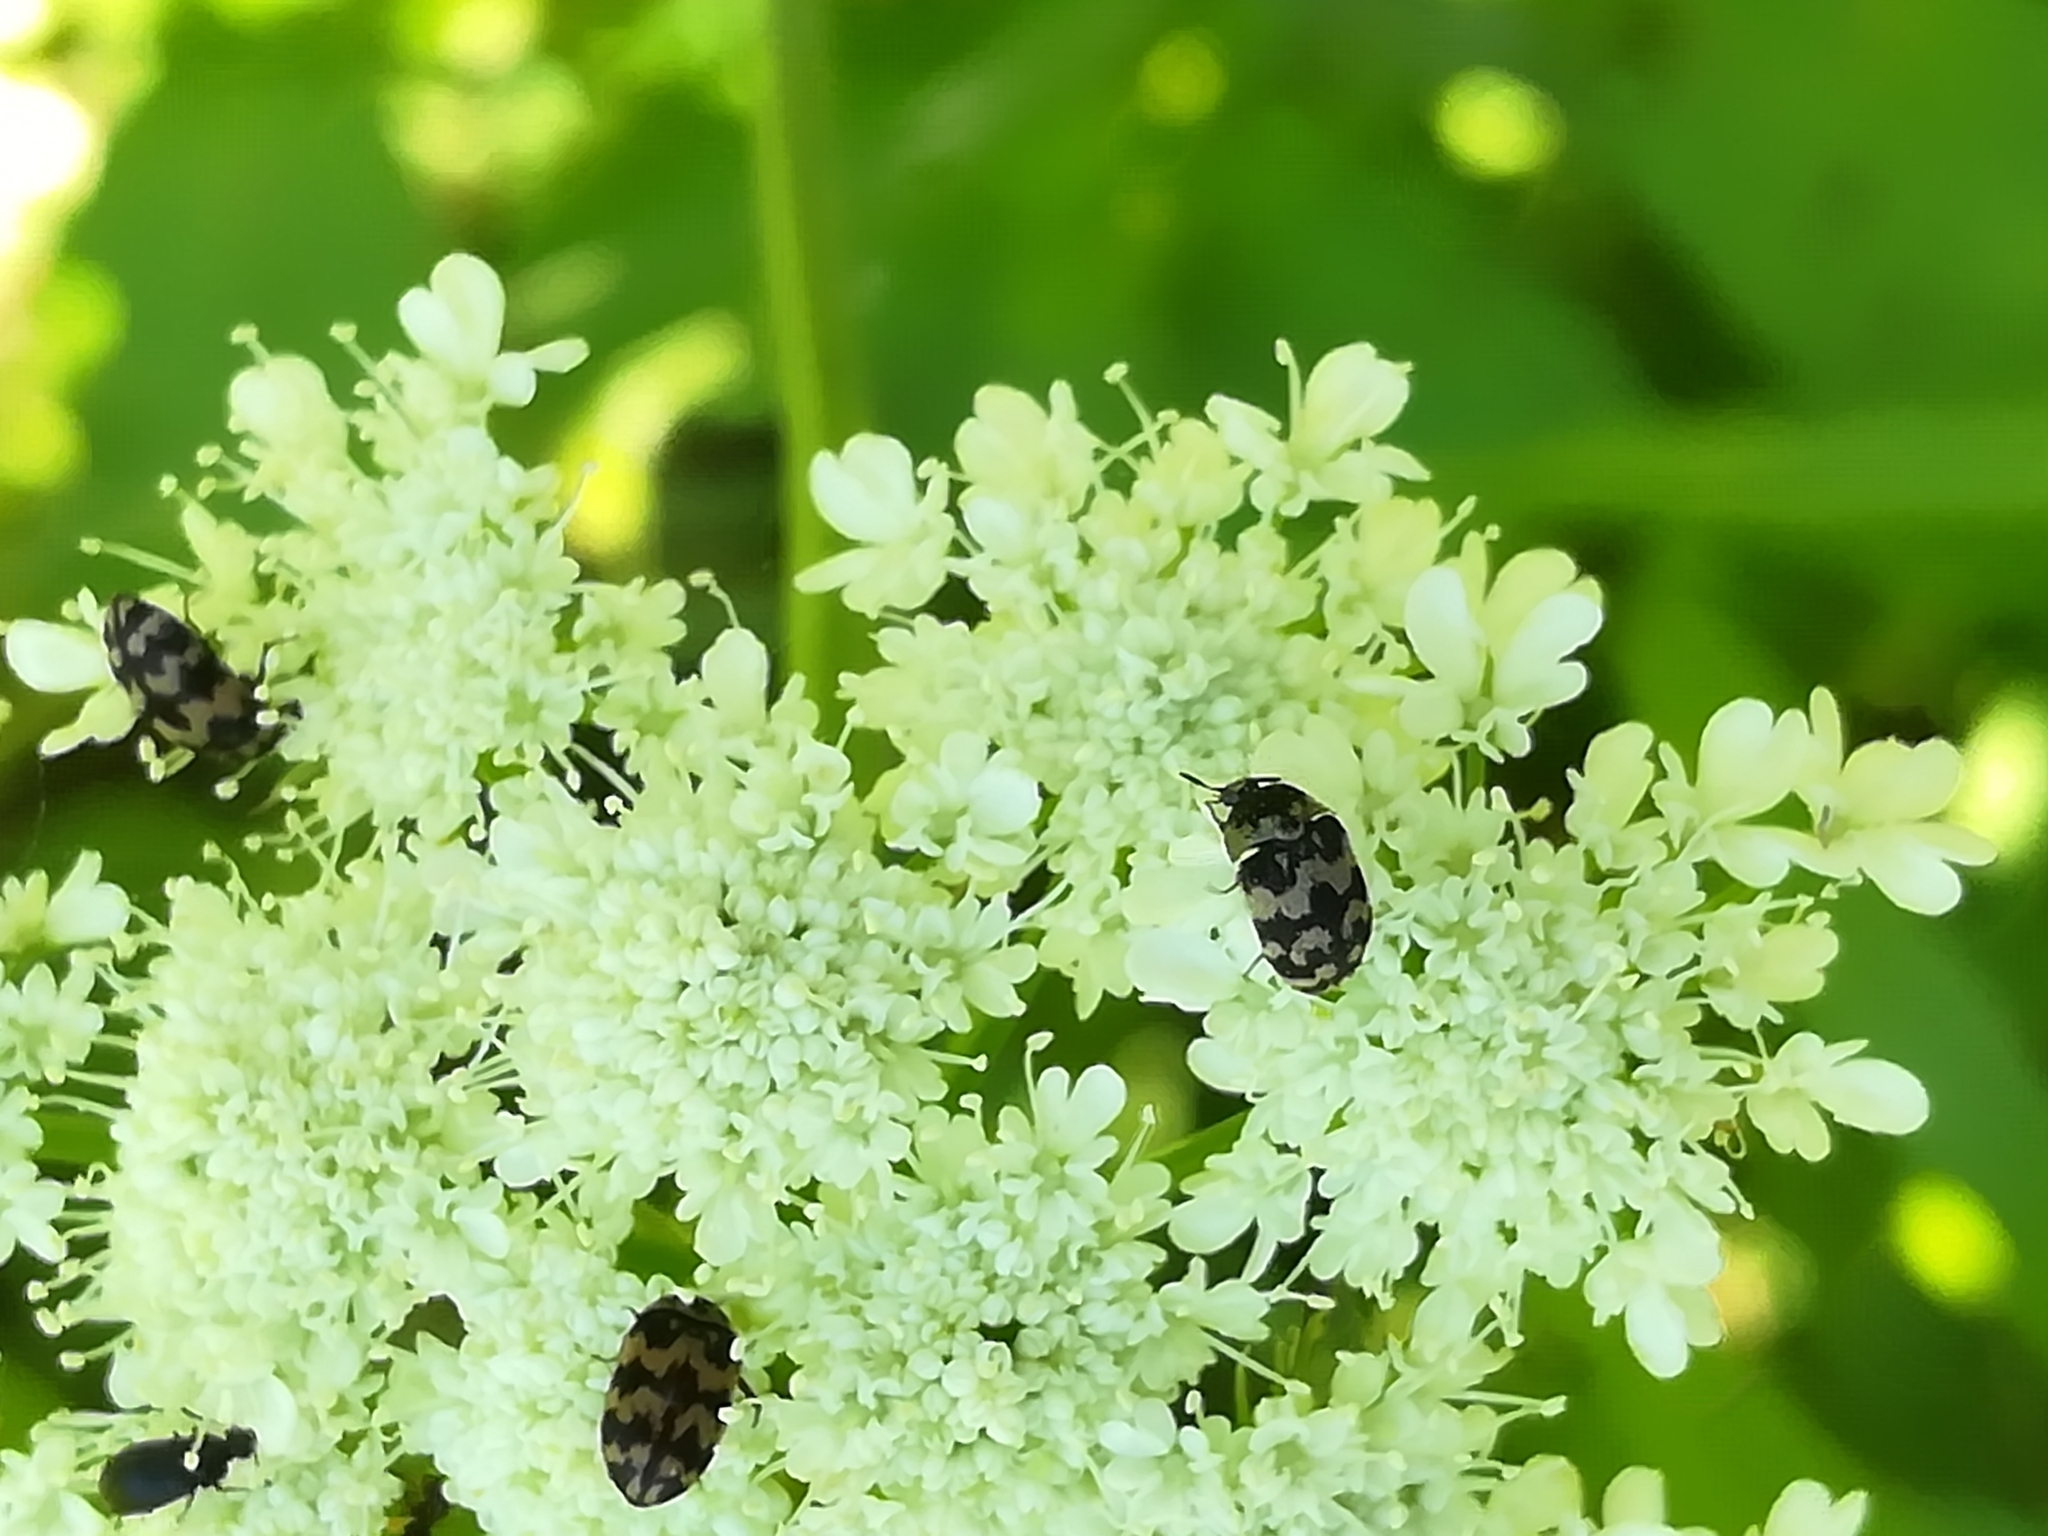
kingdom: Animalia
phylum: Arthropoda
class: Insecta
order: Coleoptera
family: Dermestidae
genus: Attagenus
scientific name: Attagenus trifasciatus
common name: Carpet beetle
